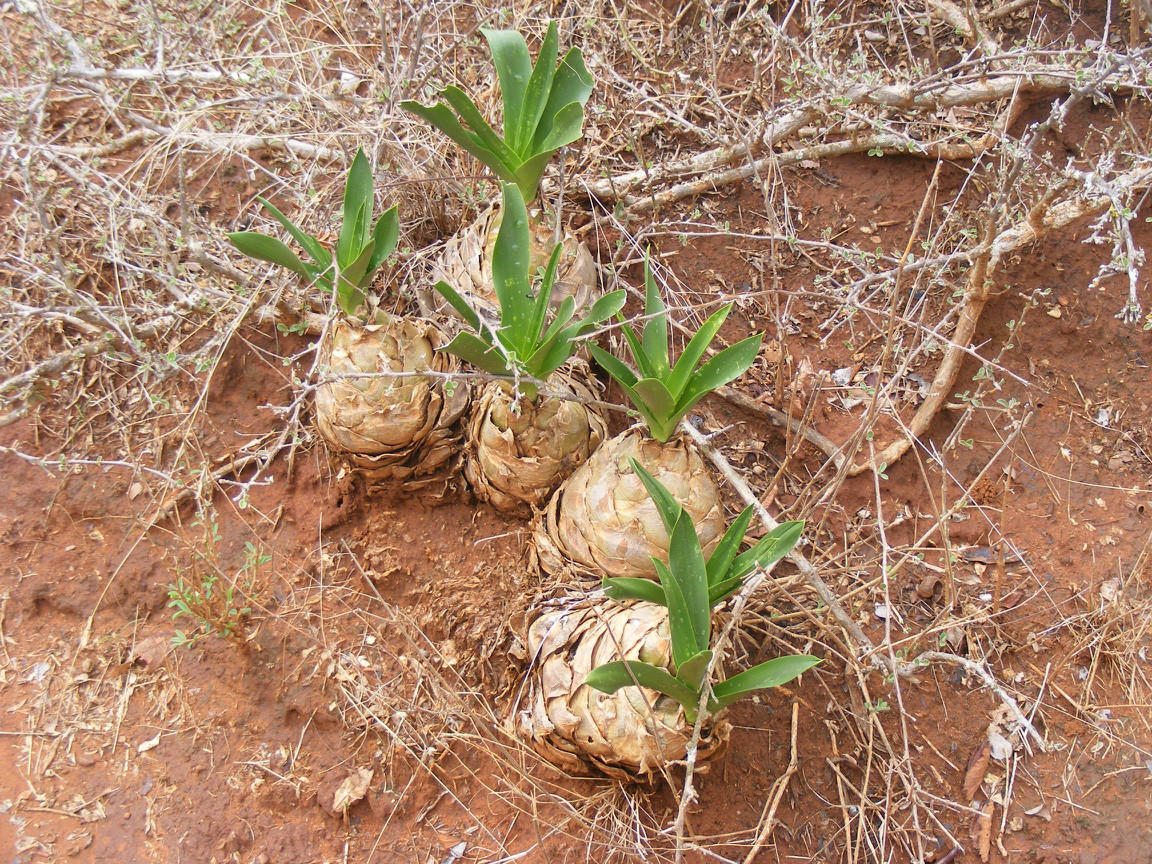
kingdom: Plantae
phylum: Tracheophyta
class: Liliopsida
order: Asparagales
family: Asparagaceae
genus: Drimia
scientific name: Drimia altissima
